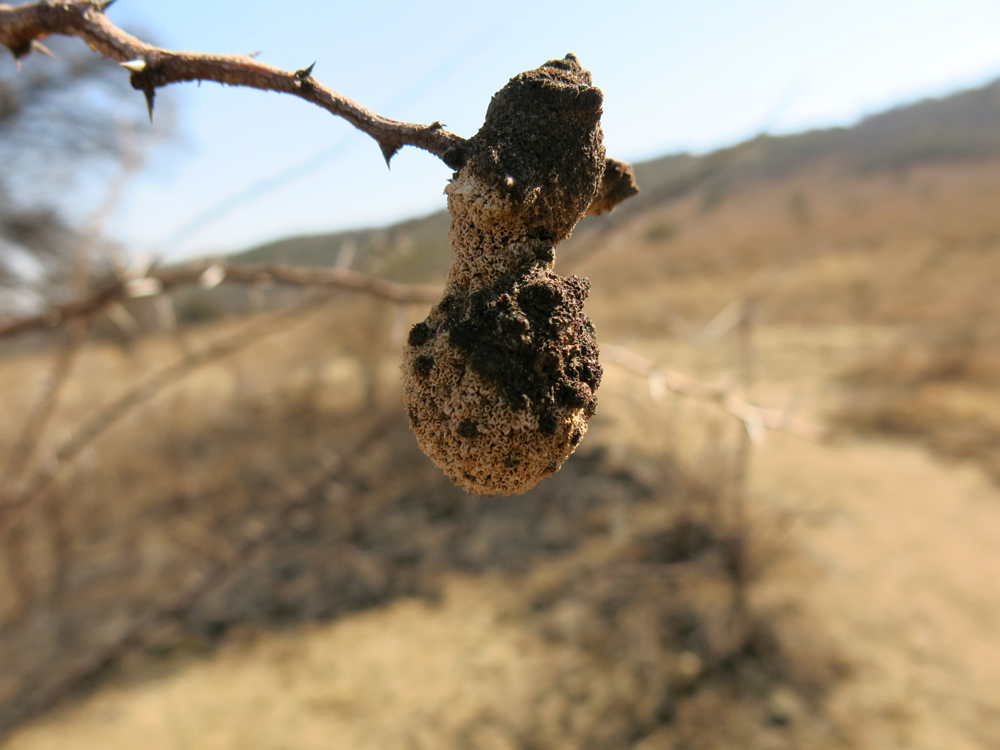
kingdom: Fungi
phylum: Basidiomycota
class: Pucciniomycetes
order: Pucciniales
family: Raveneliaceae
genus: Cephalotelium
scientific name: Cephalotelium macowanianum
